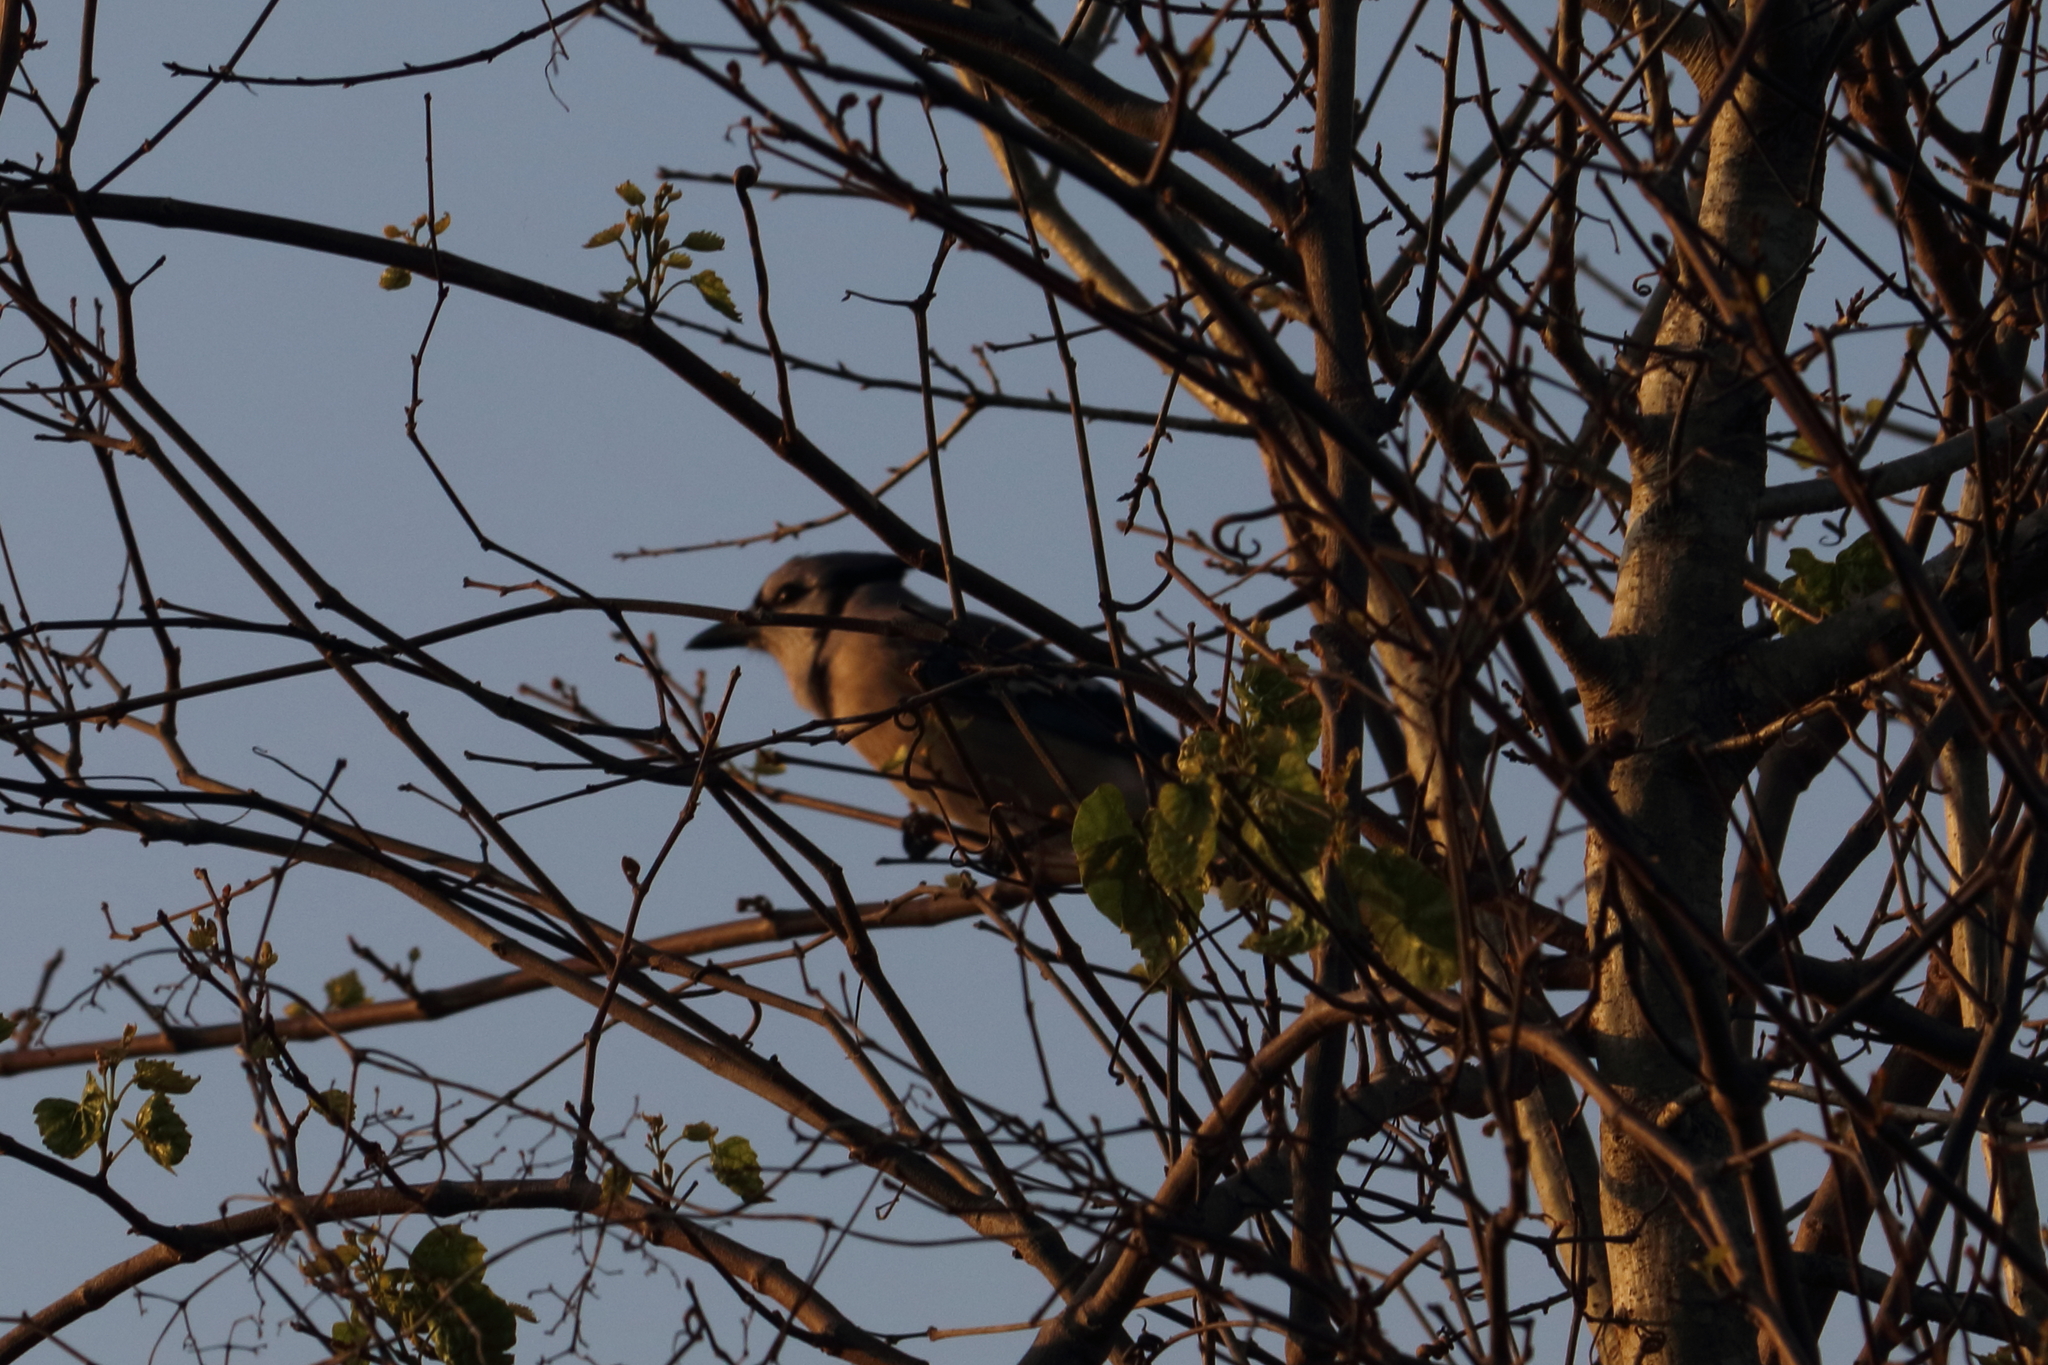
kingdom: Animalia
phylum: Chordata
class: Aves
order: Passeriformes
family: Corvidae
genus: Cyanocitta
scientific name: Cyanocitta cristata
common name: Blue jay
